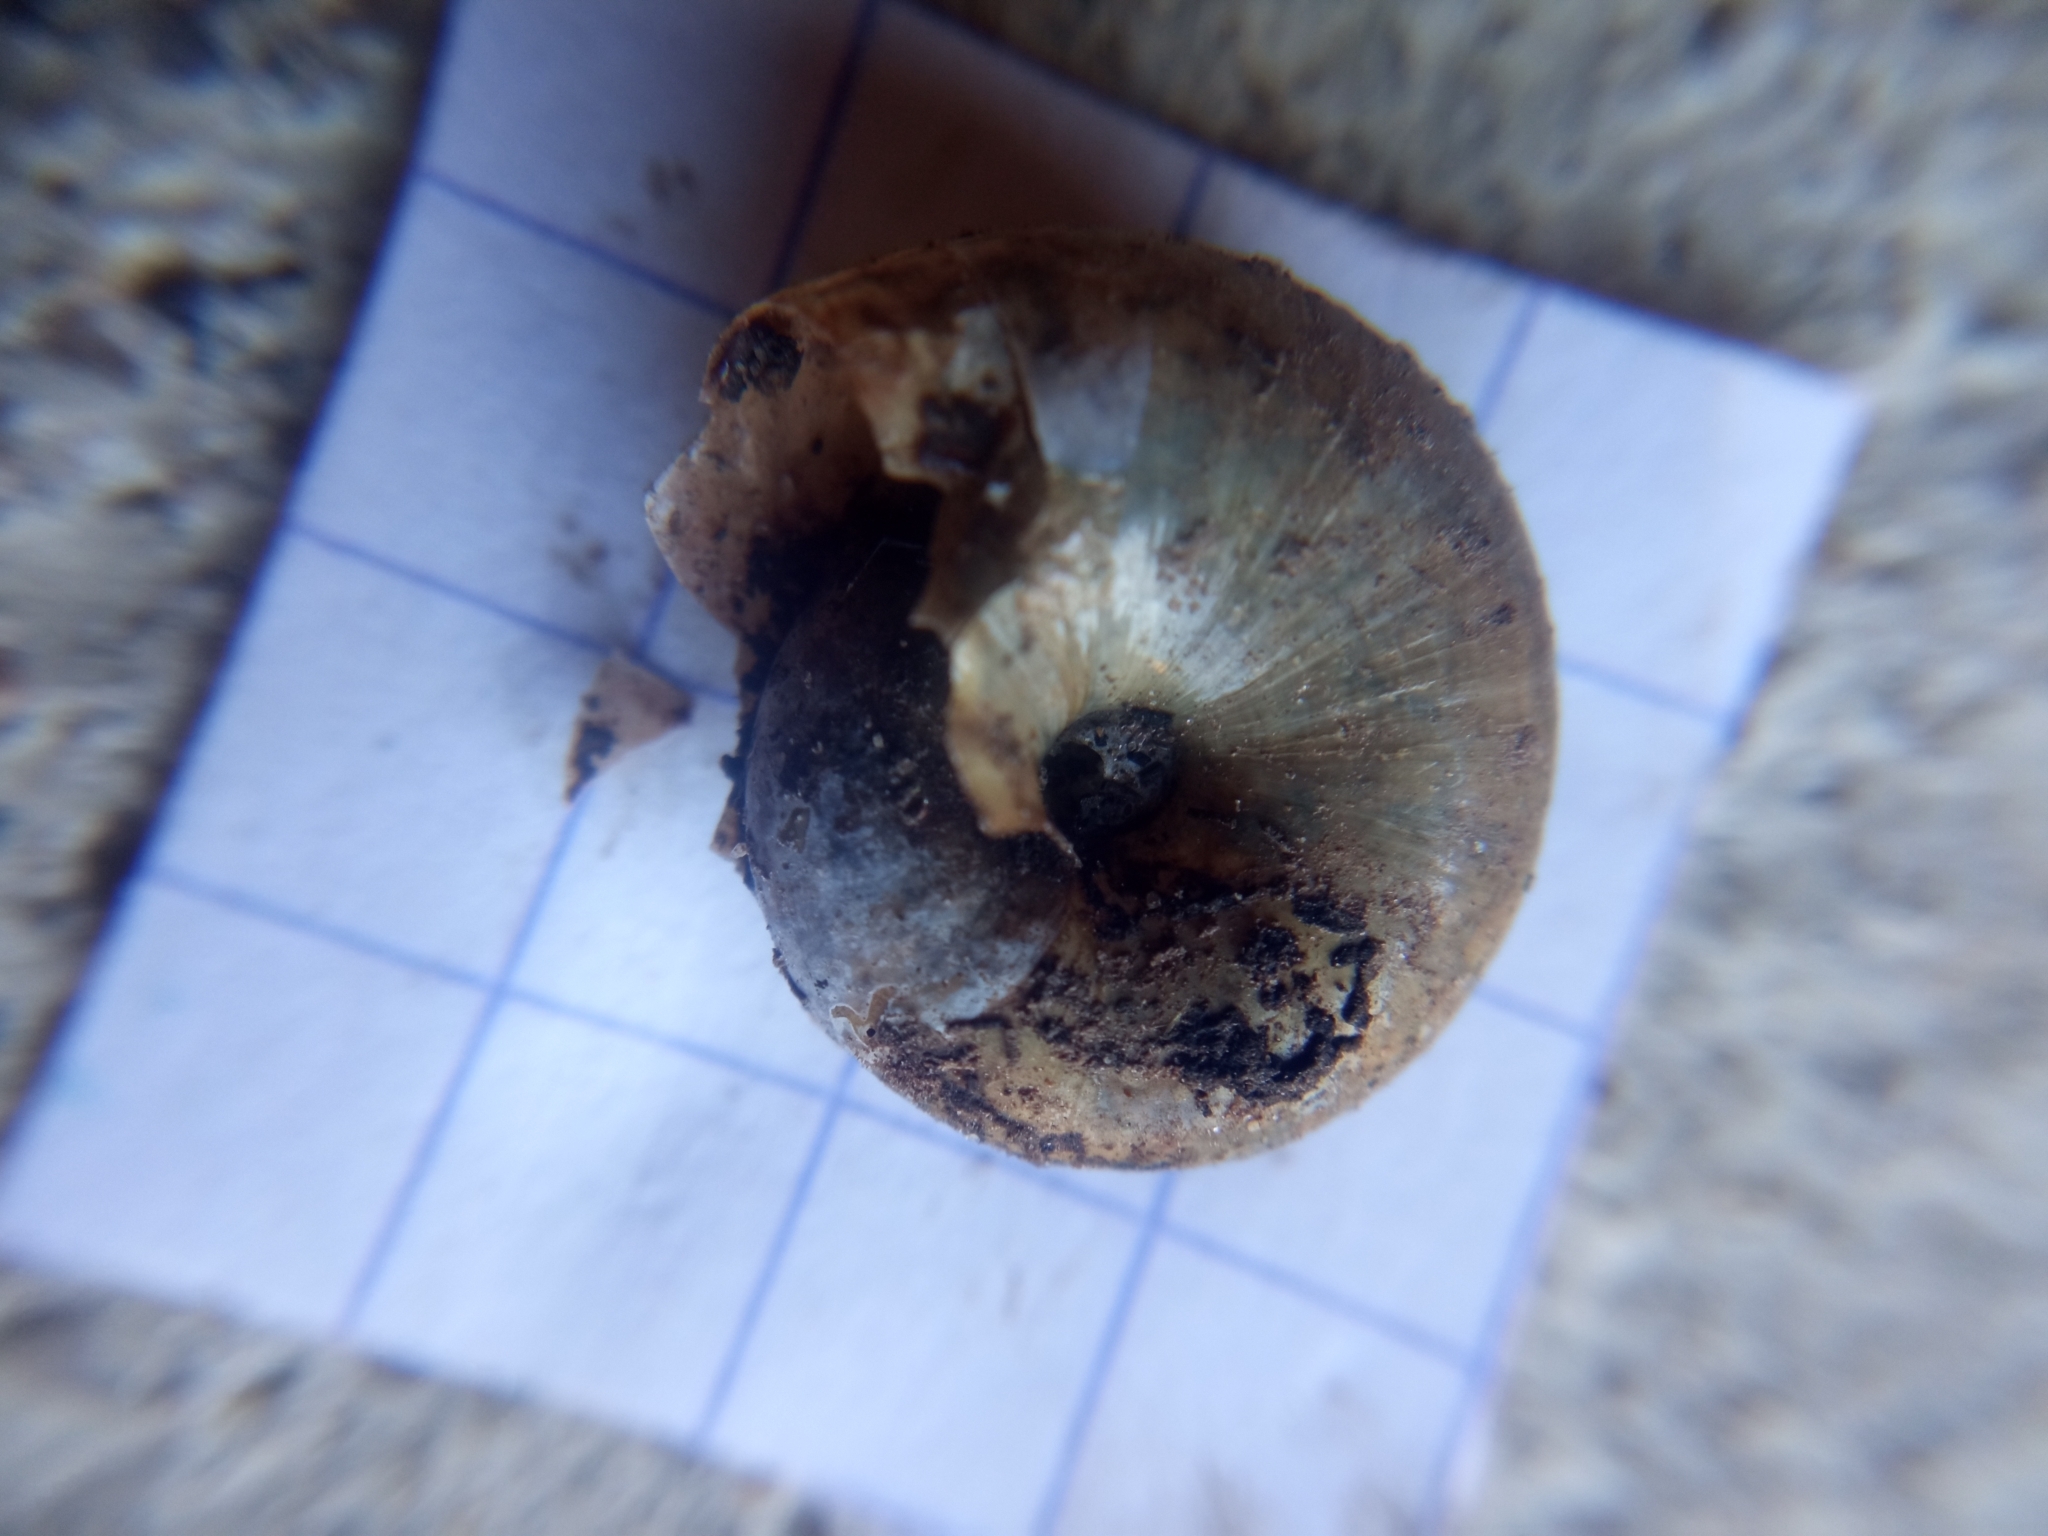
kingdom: Animalia
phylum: Mollusca
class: Gastropoda
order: Stylommatophora
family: Oxychilidae
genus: Oxychilus
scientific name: Oxychilus draparnaudi
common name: Draparnaud's glass snail
